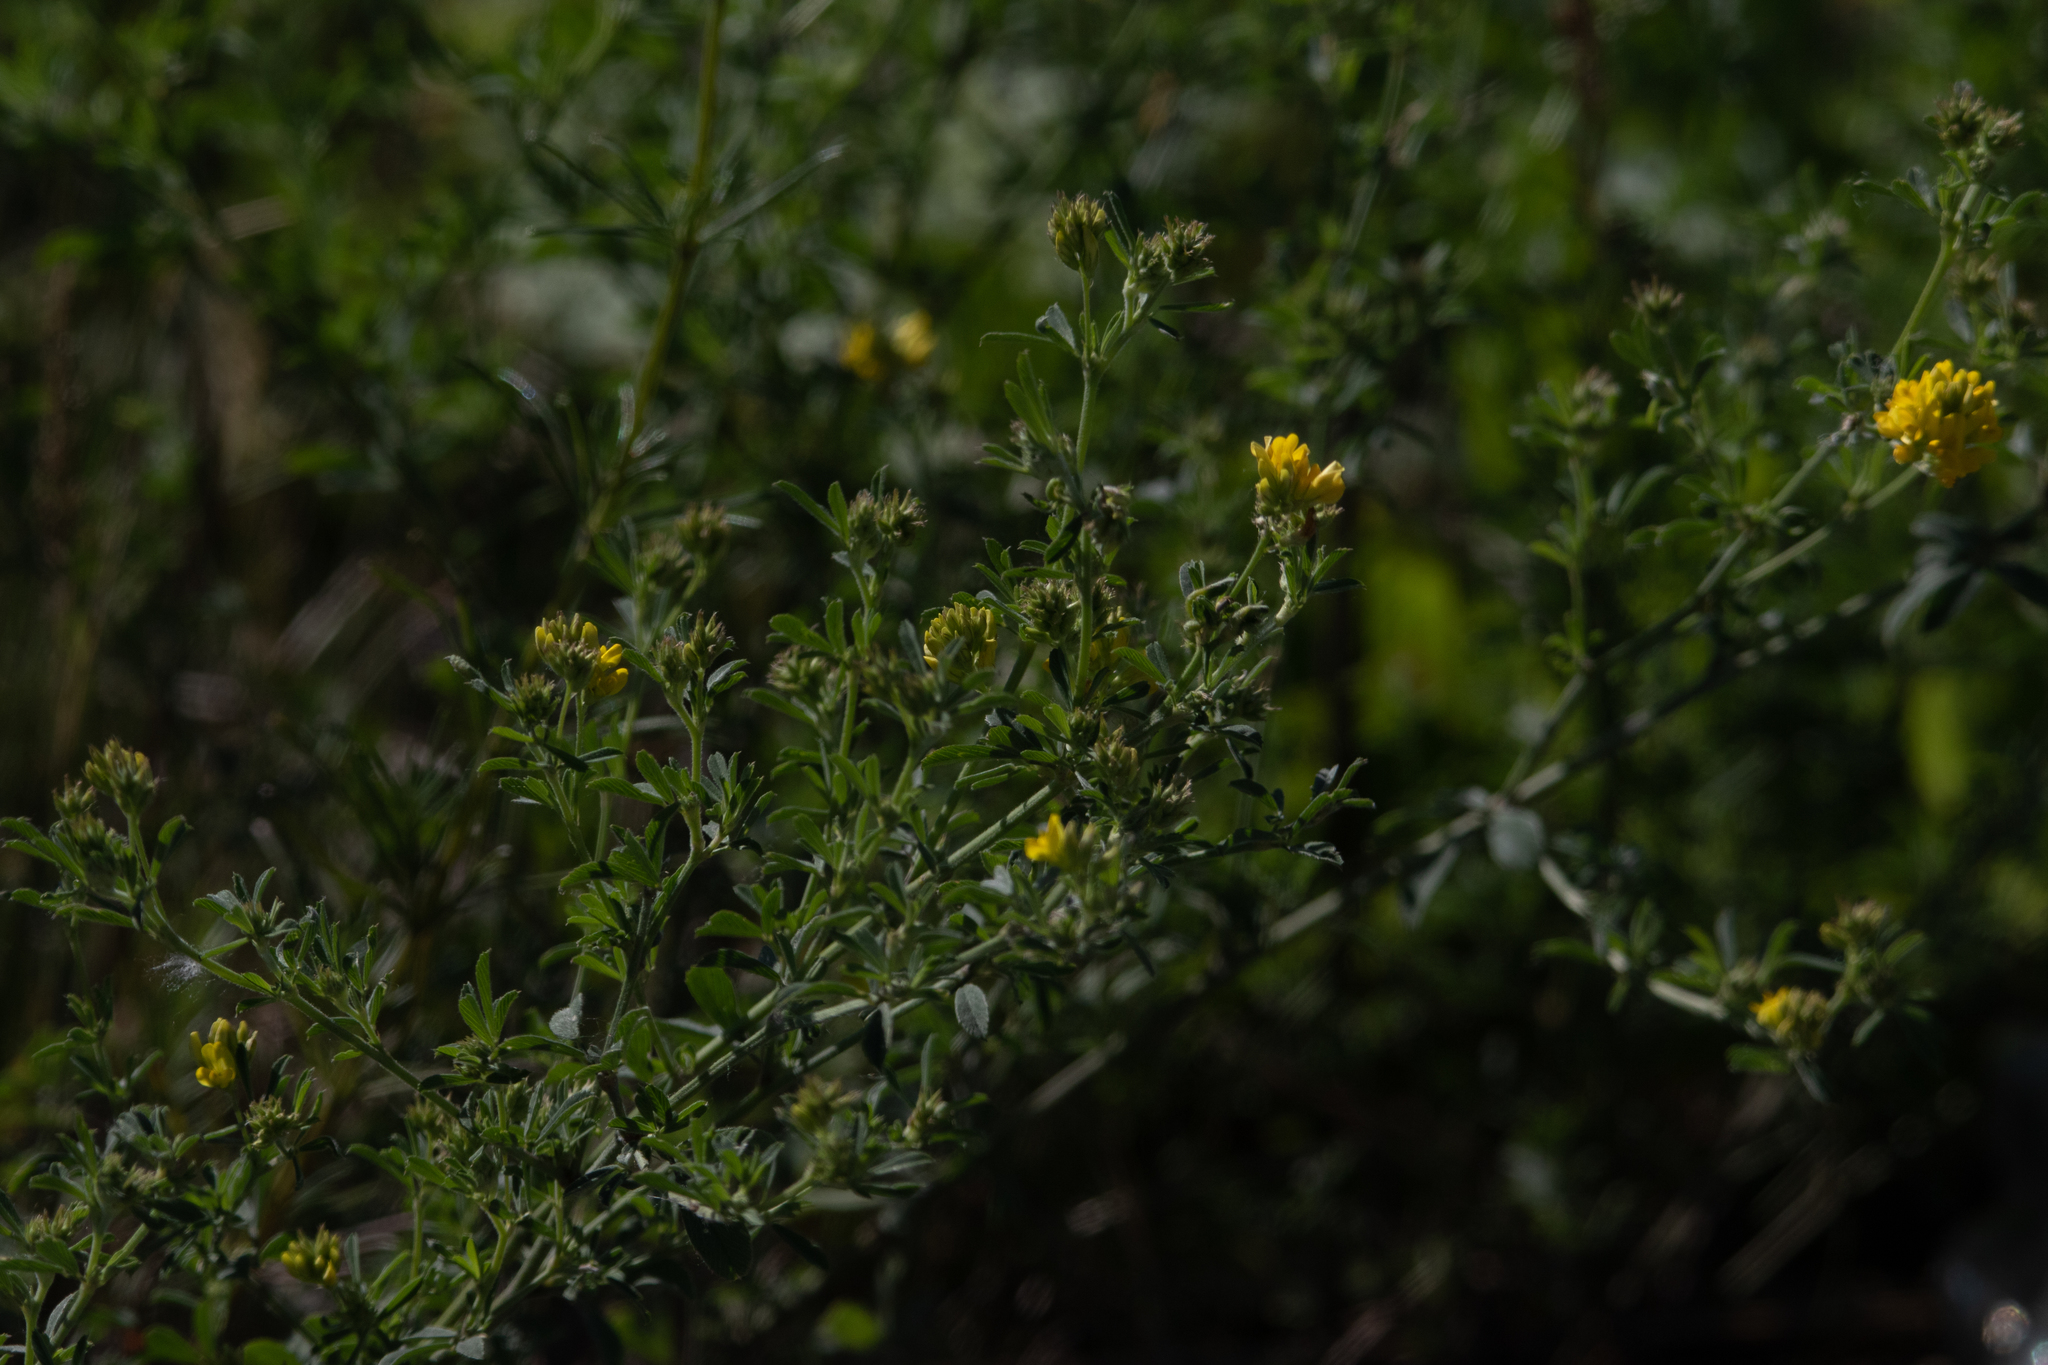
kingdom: Plantae
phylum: Tracheophyta
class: Magnoliopsida
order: Fabales
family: Fabaceae
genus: Medicago
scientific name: Medicago falcata
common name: Sickle medick
